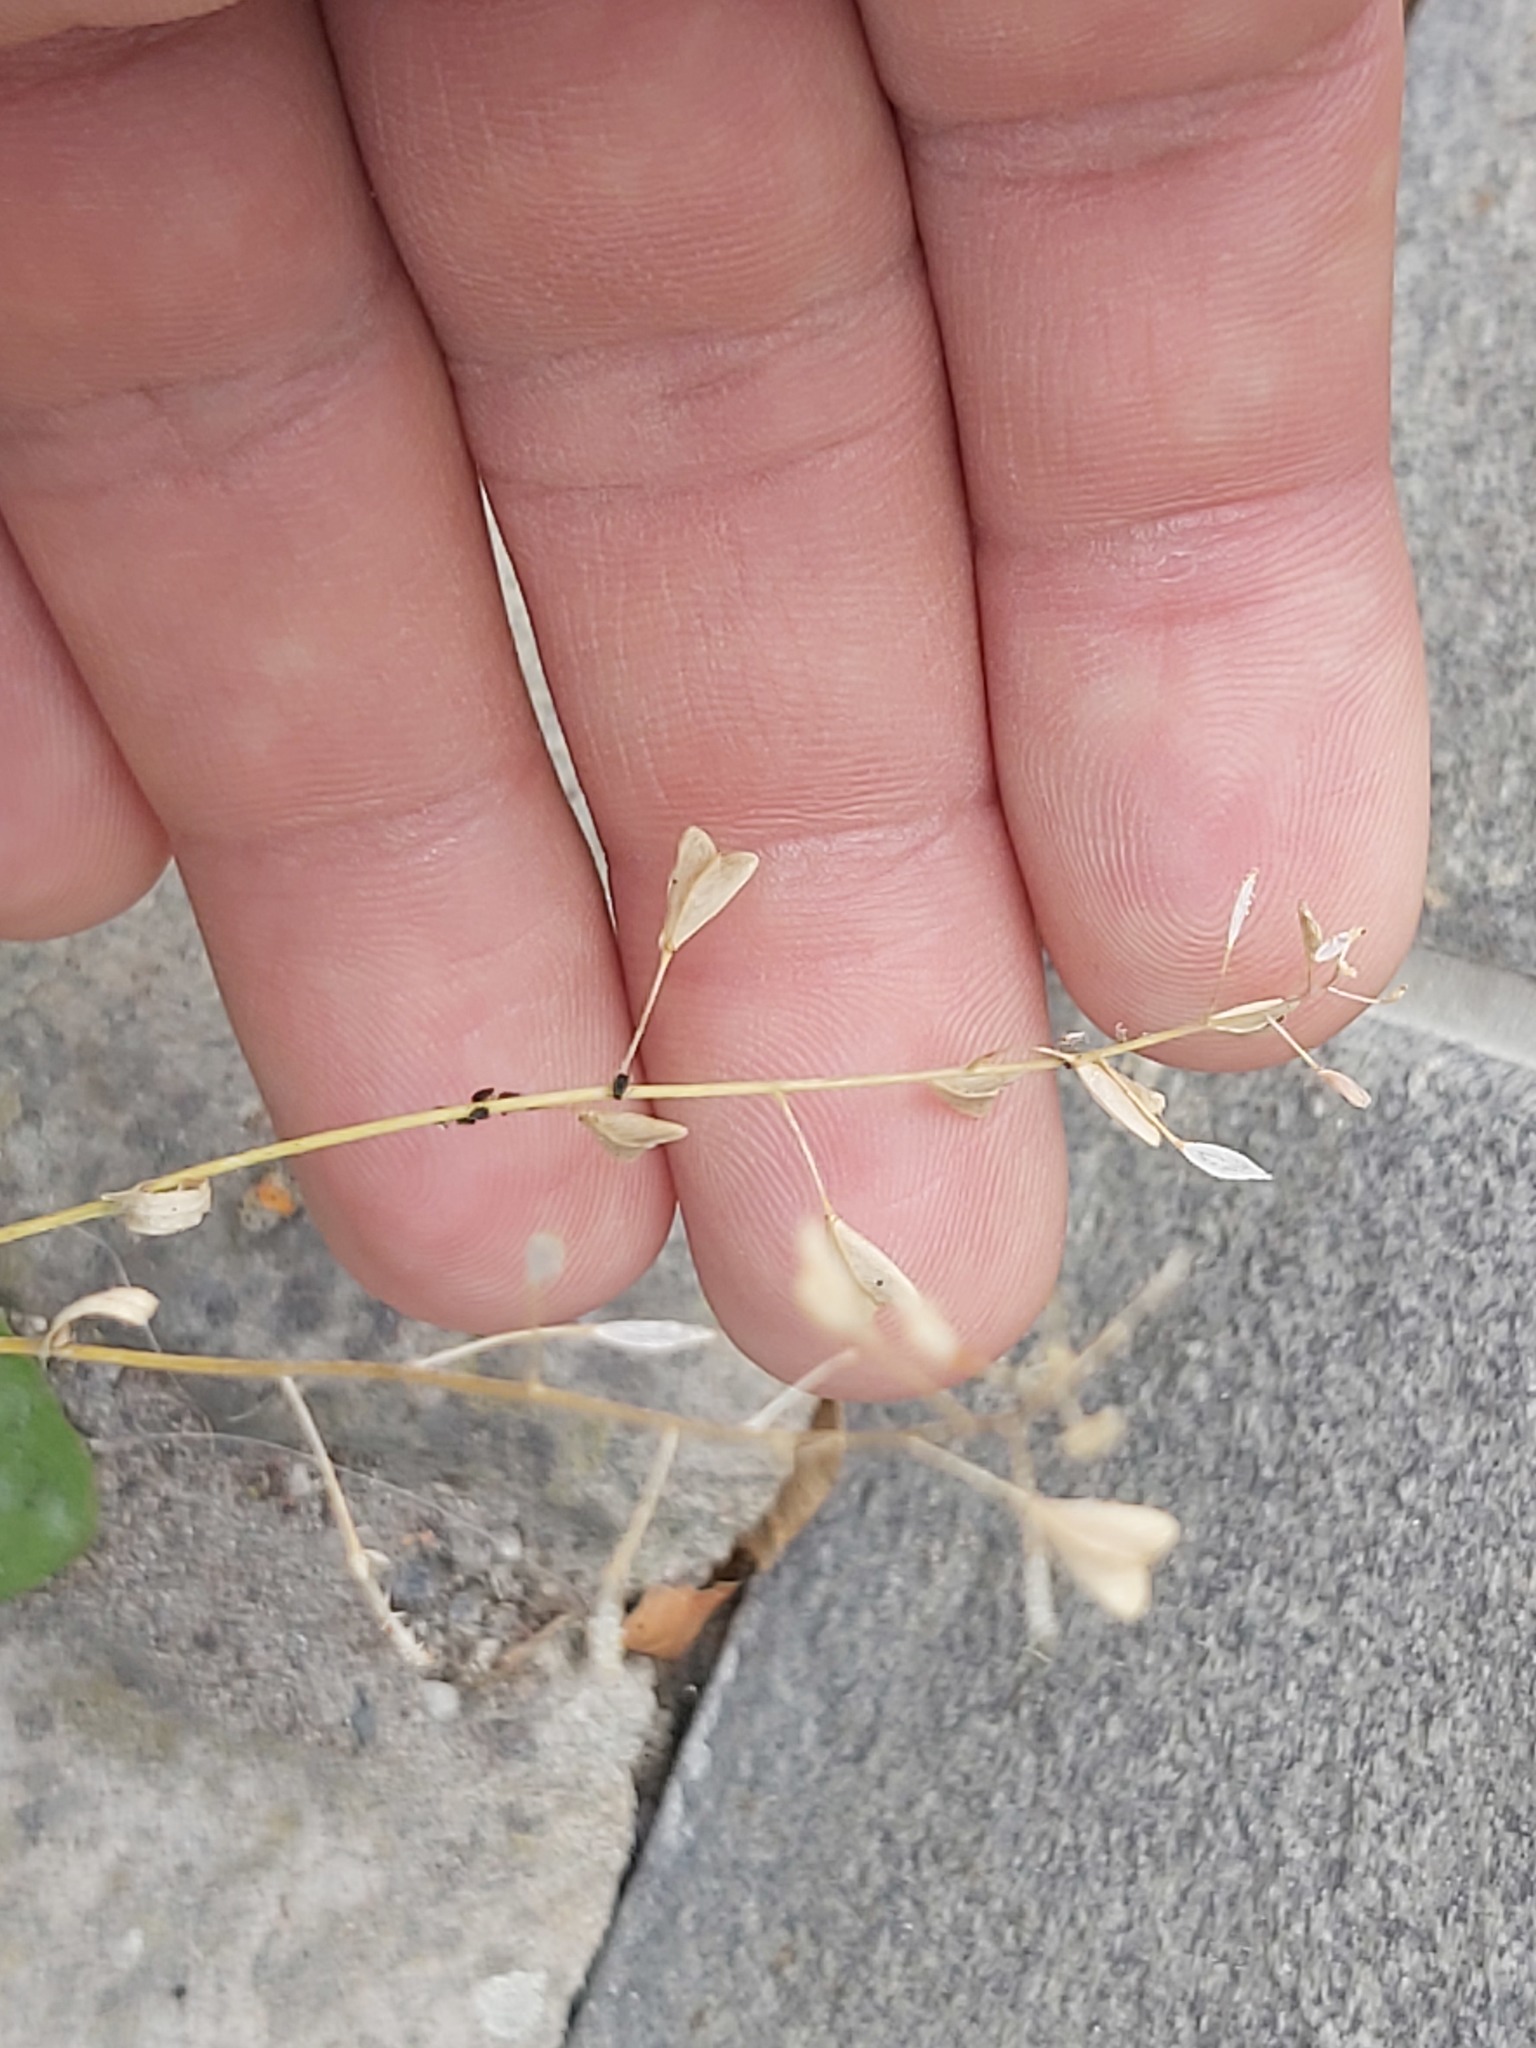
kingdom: Plantae
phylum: Tracheophyta
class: Magnoliopsida
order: Brassicales
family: Brassicaceae
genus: Capsella
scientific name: Capsella bursa-pastoris
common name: Shepherd's purse
